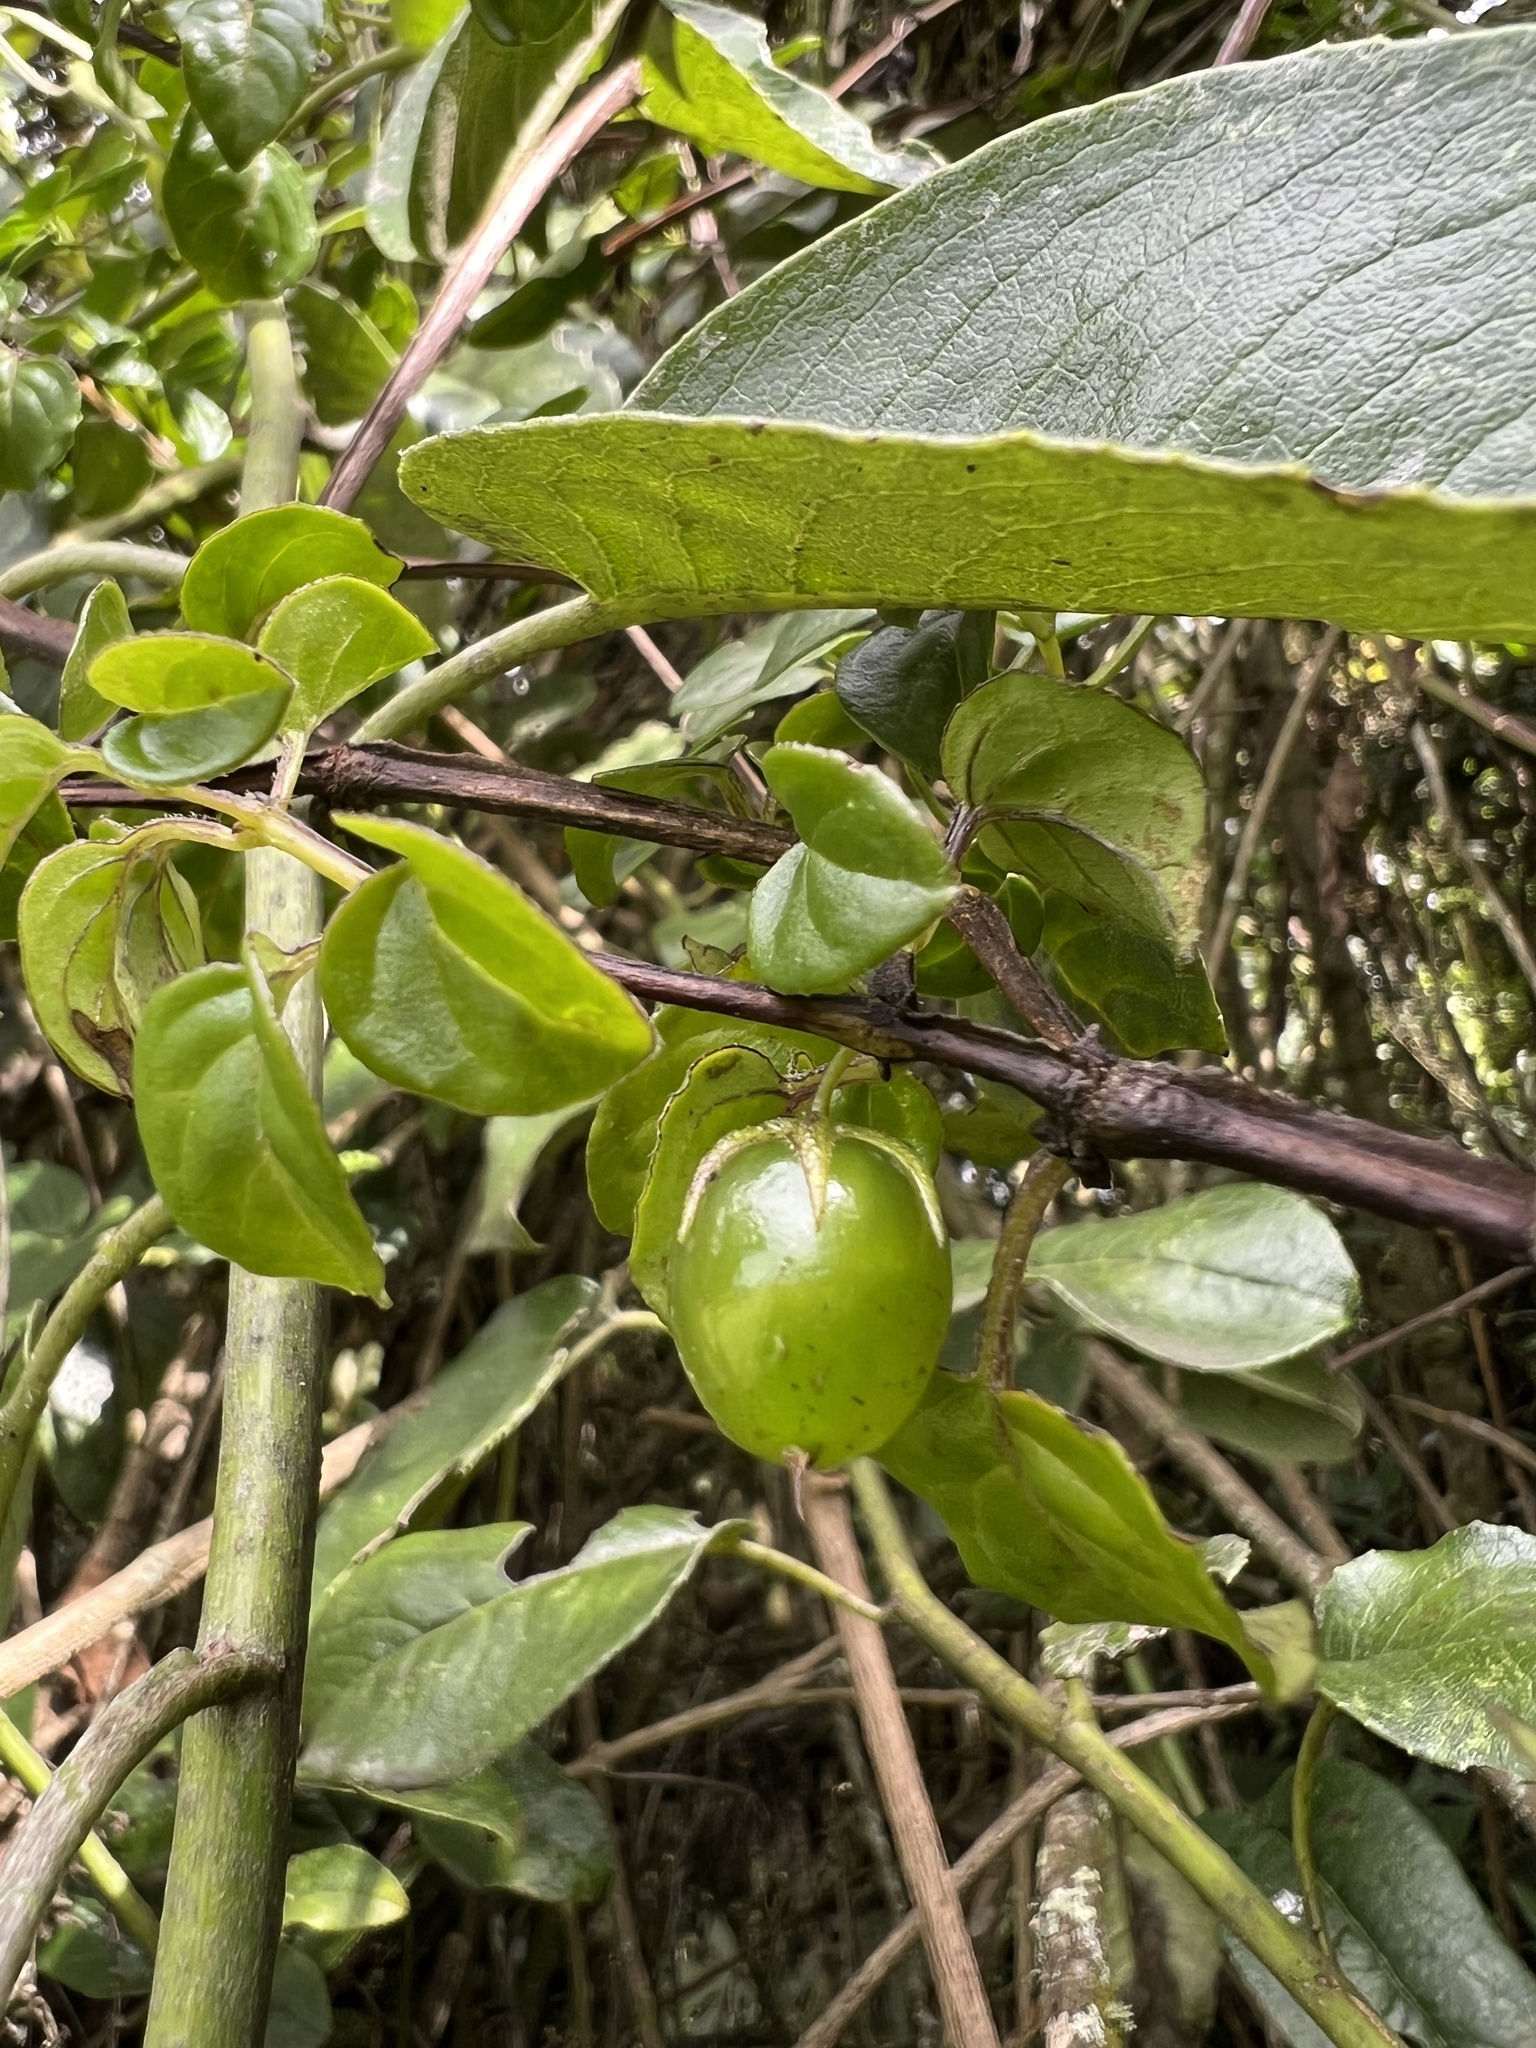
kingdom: Plantae
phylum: Tracheophyta
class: Magnoliopsida
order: Solanales
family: Solanaceae
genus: Salpichroa
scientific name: Salpichroa tristis
